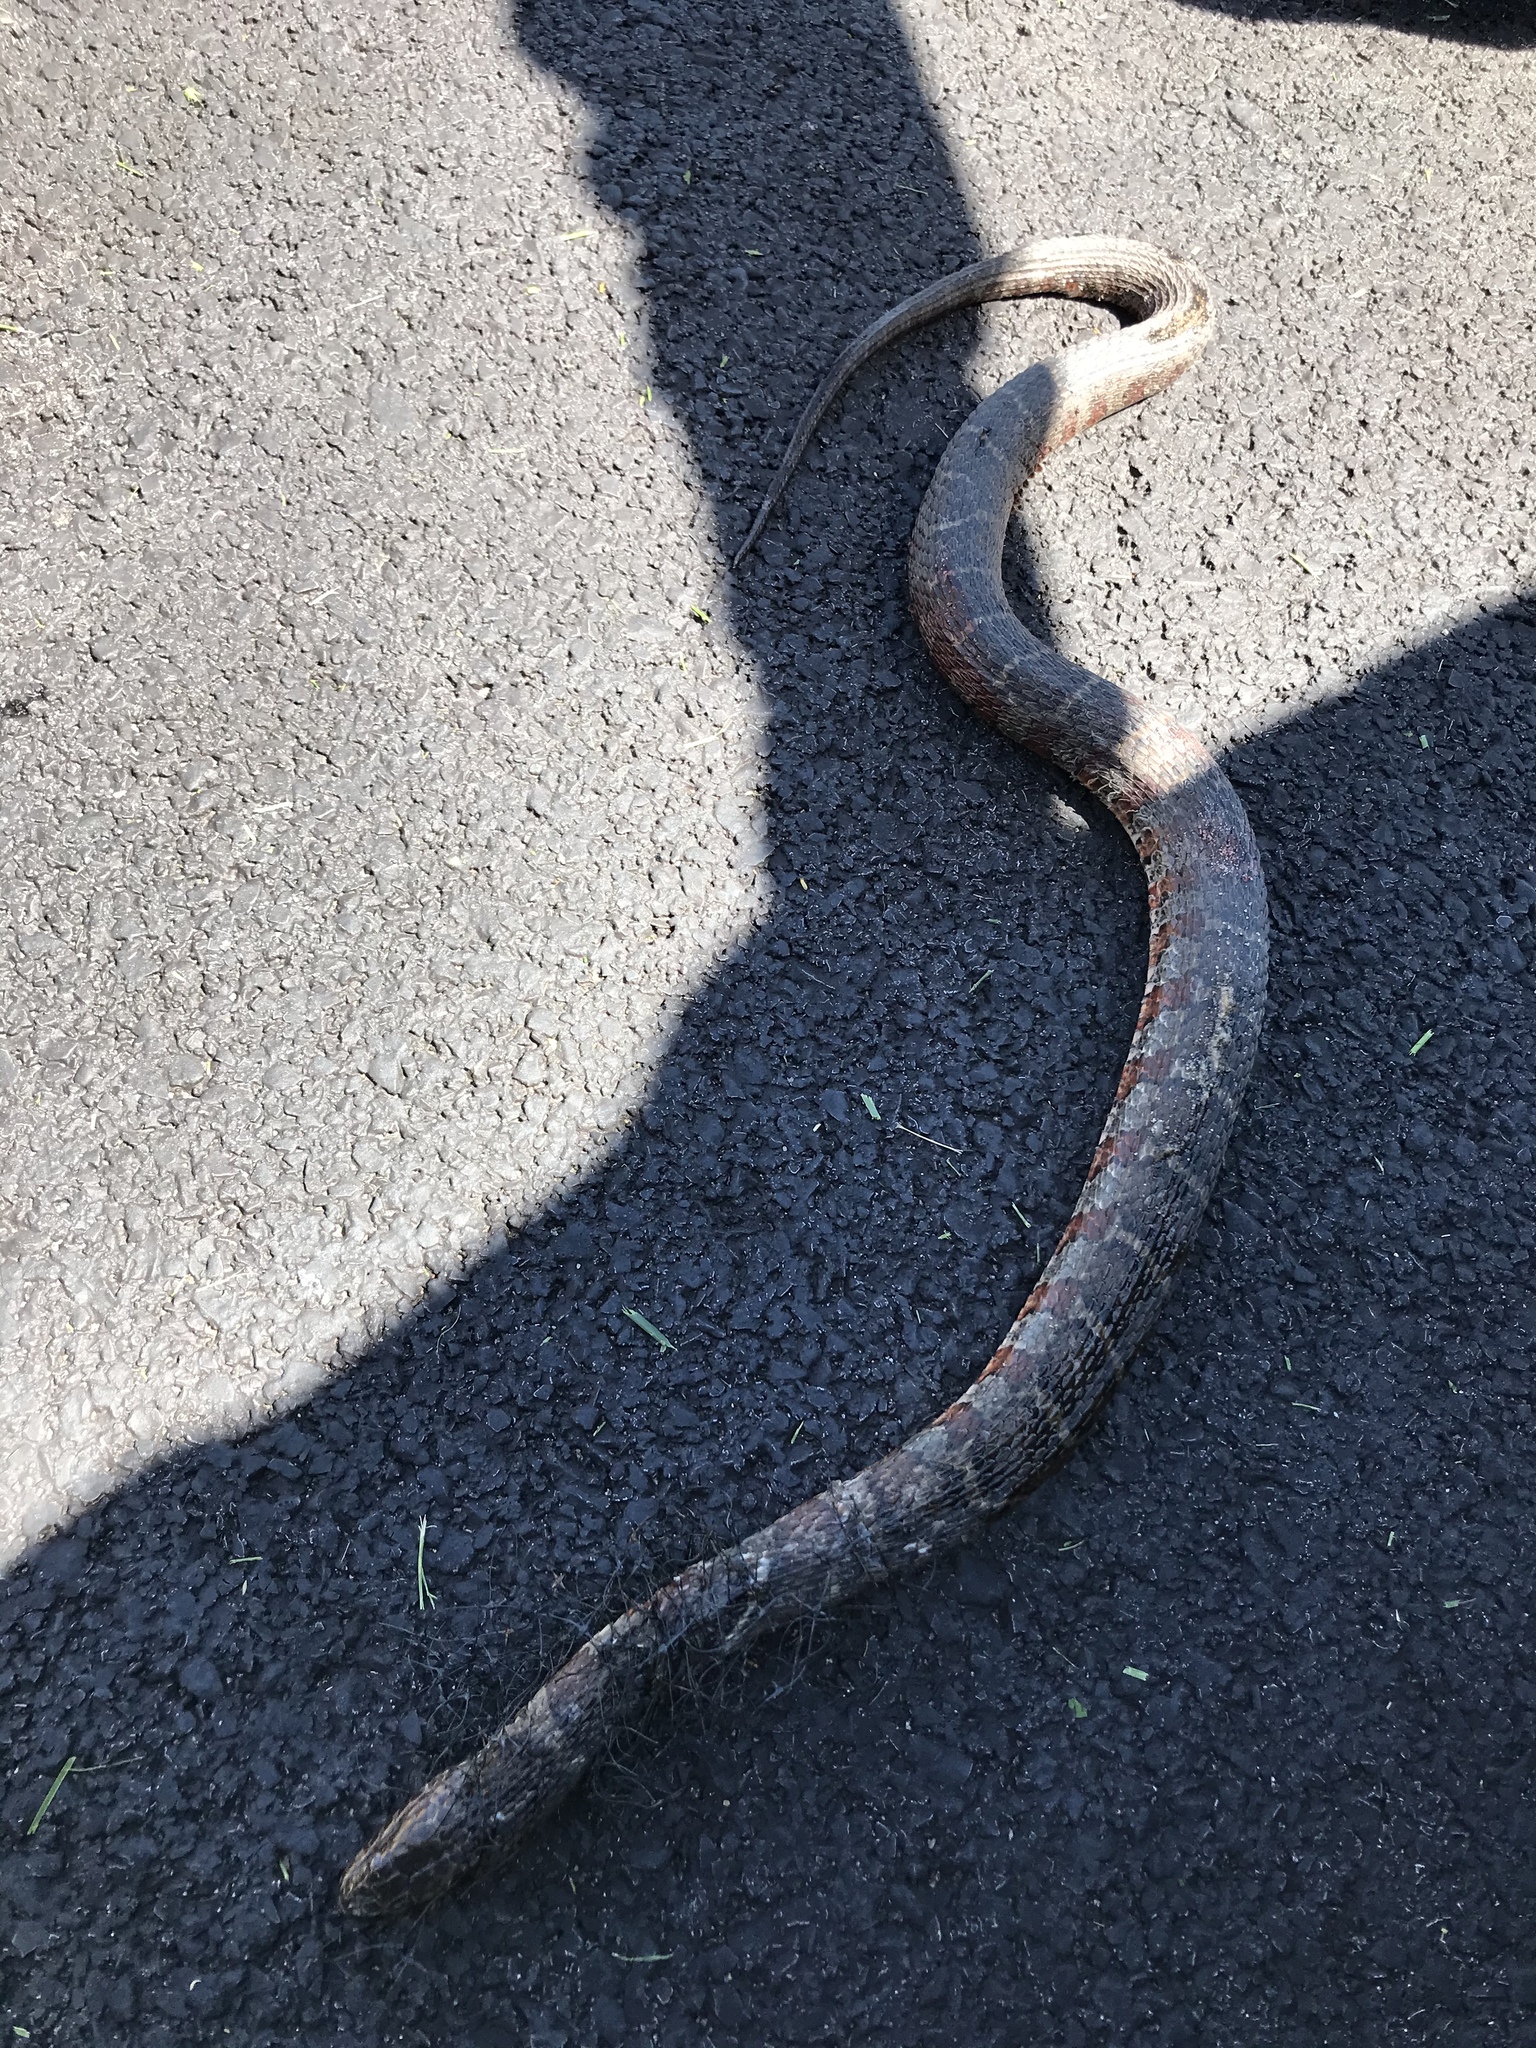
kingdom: Animalia
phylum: Chordata
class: Squamata
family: Colubridae
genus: Nerodia
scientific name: Nerodia sipedon
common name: Northern water snake
